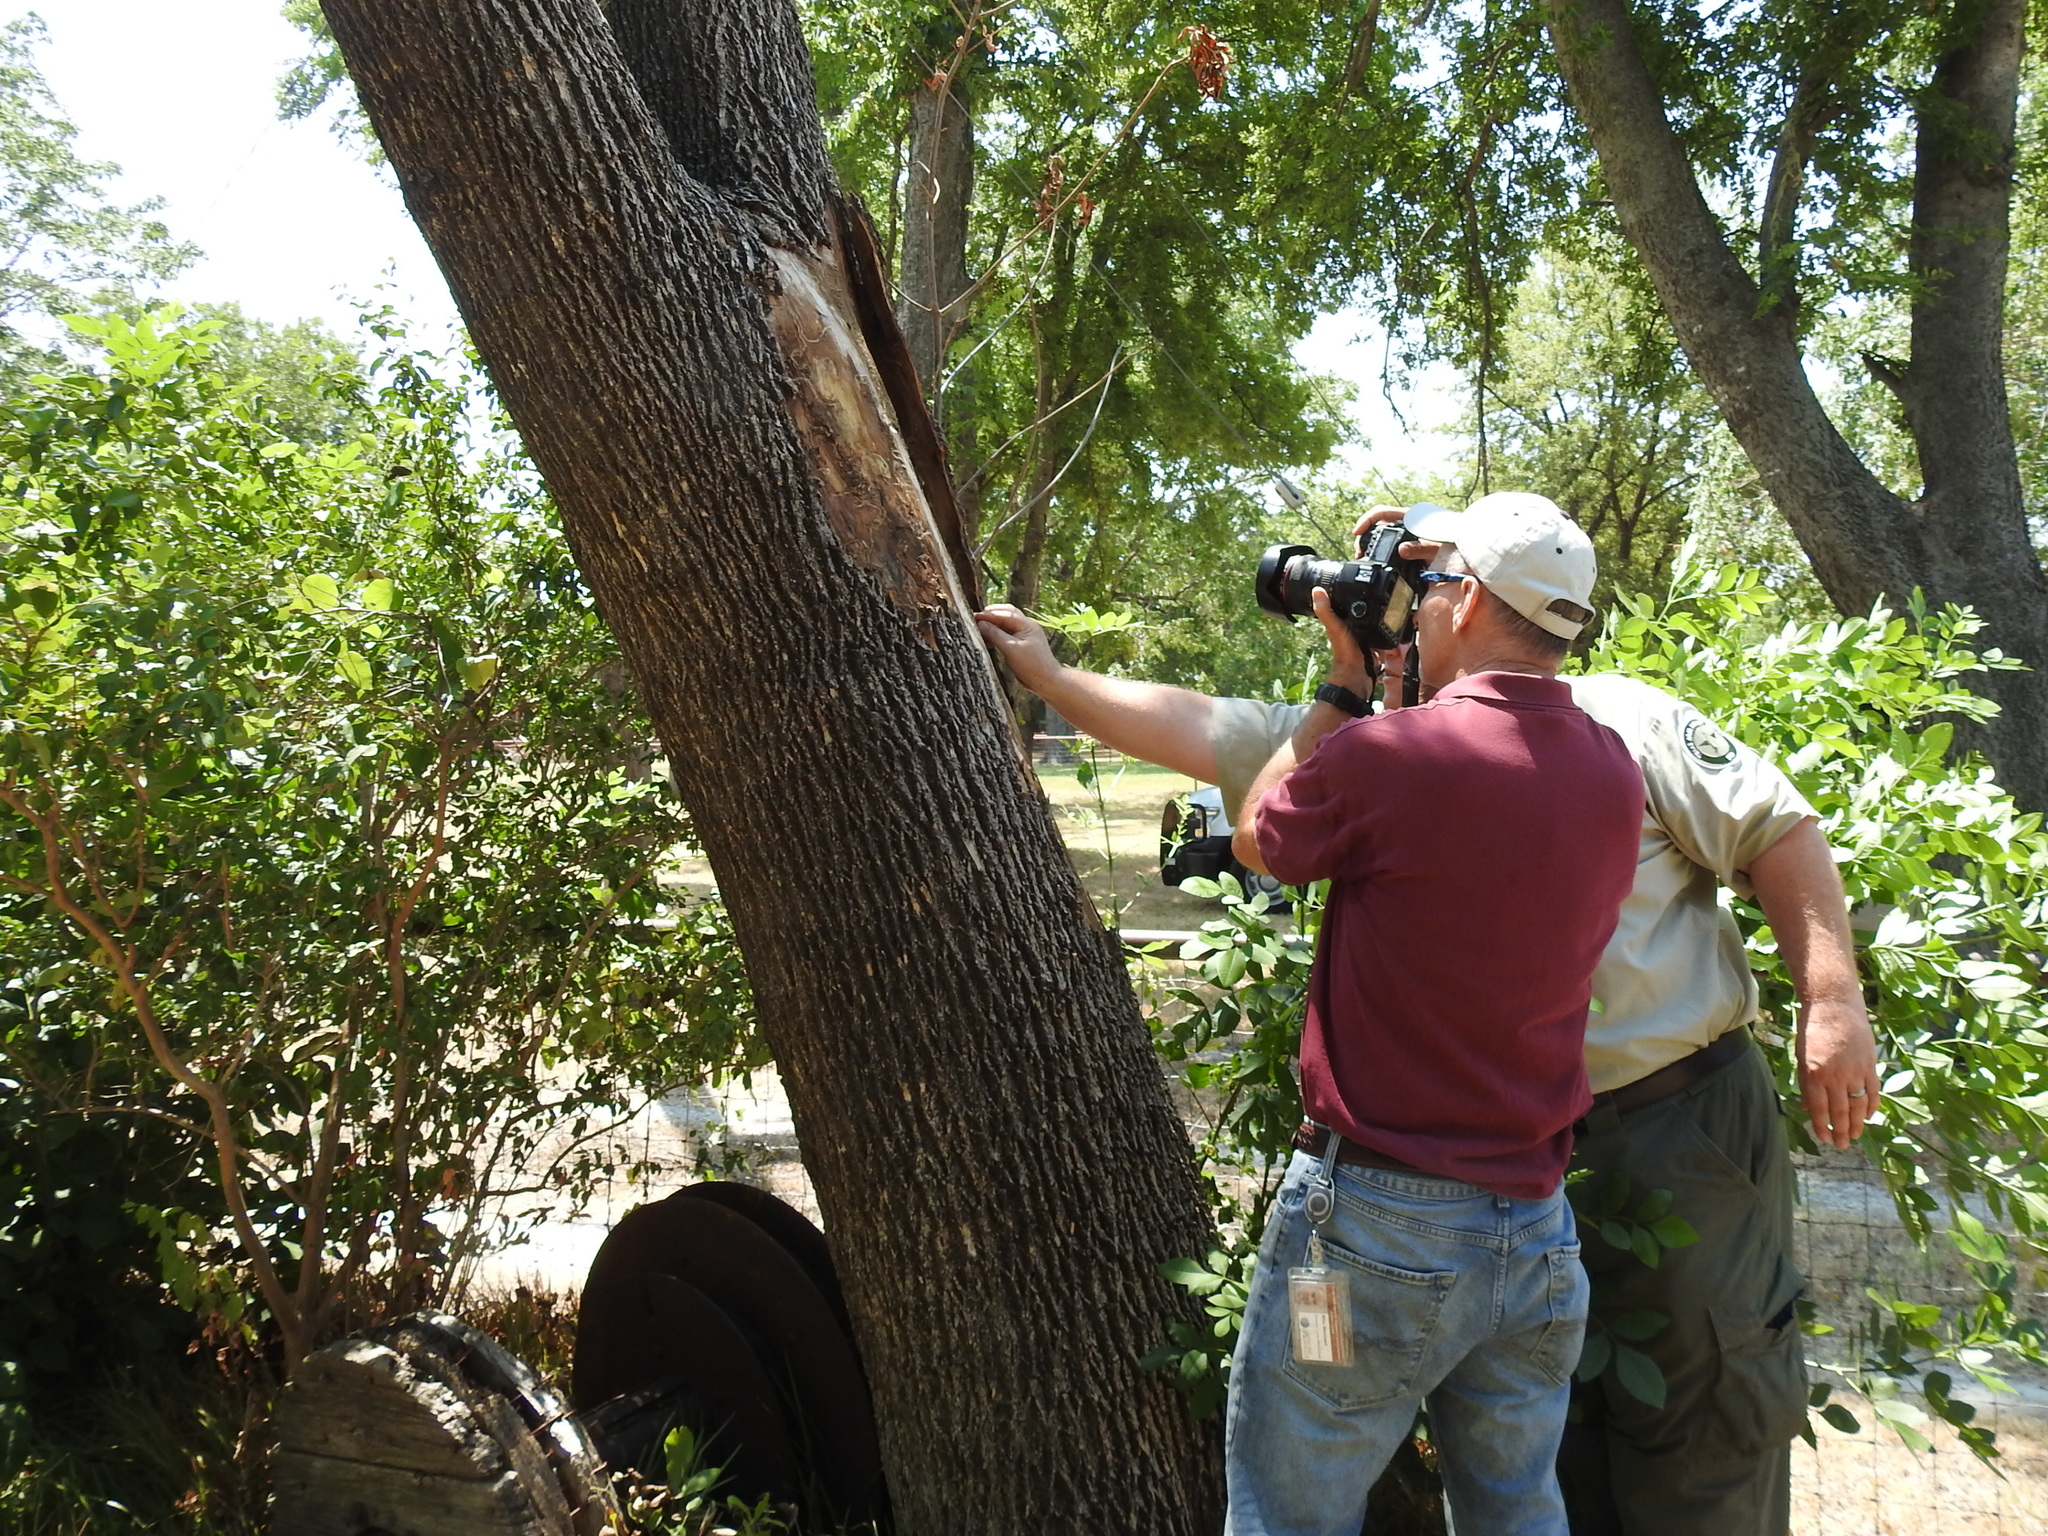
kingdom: Animalia
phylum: Arthropoda
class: Insecta
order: Coleoptera
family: Buprestidae
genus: Agrilus
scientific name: Agrilus planipennis
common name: Emerald ash borer
